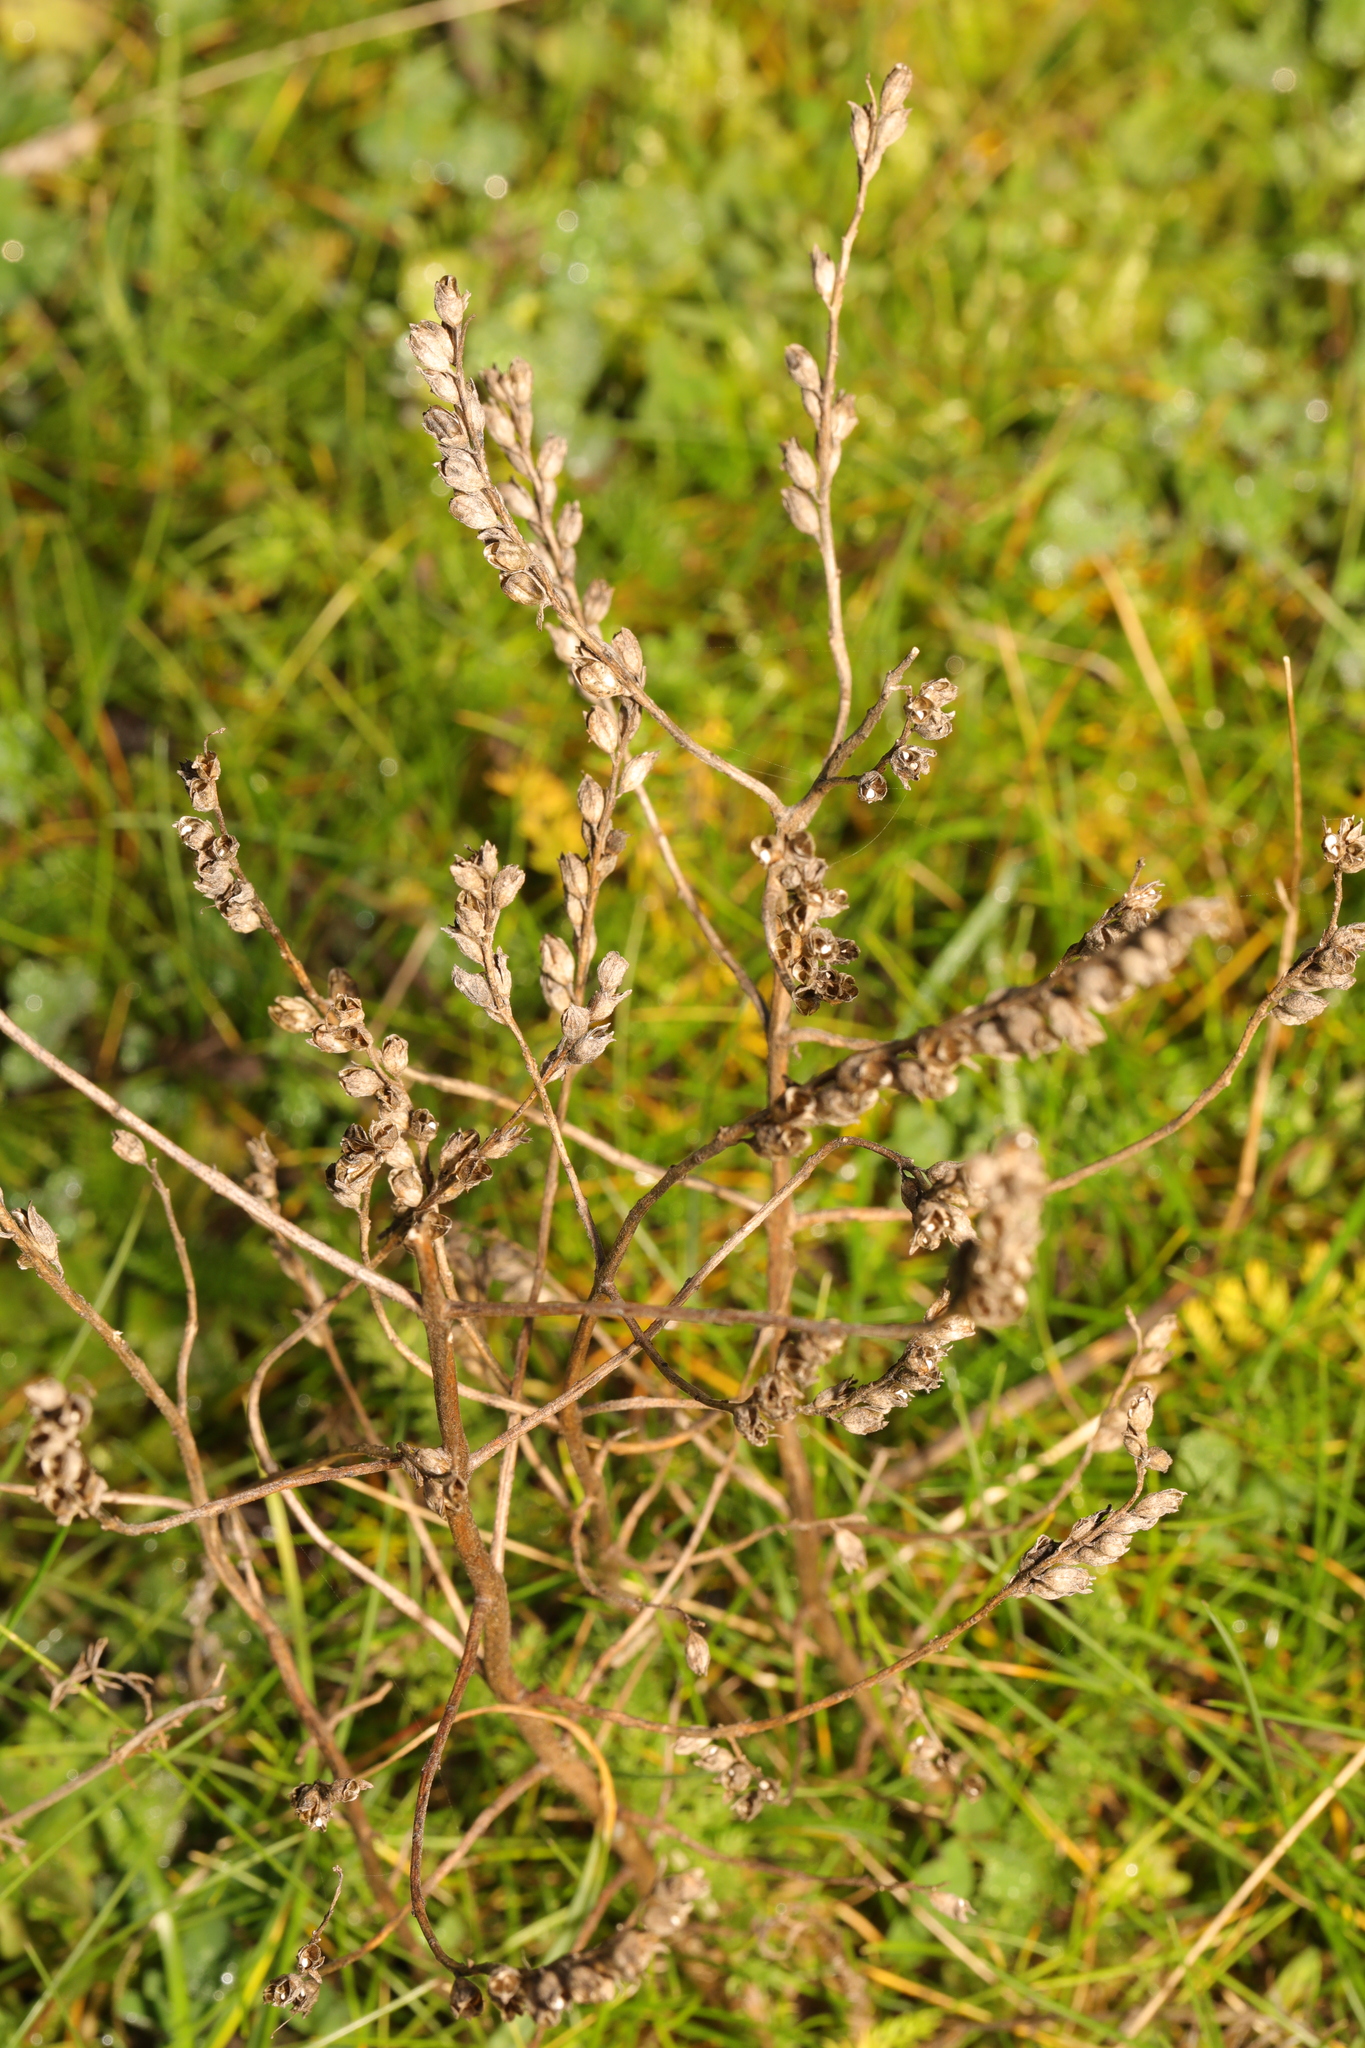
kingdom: Plantae
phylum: Tracheophyta
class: Magnoliopsida
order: Lamiales
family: Orobanchaceae
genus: Odontites
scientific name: Odontites vulgaris
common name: Broomrape
